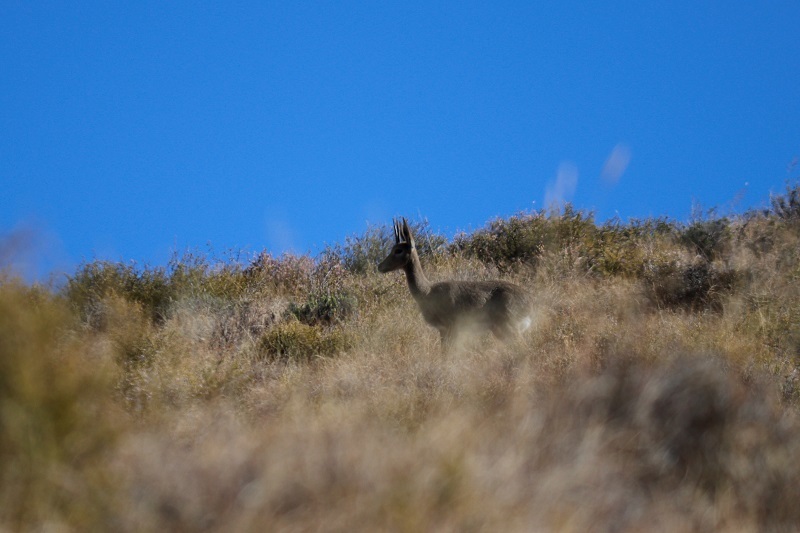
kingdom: Animalia
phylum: Chordata
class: Mammalia
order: Artiodactyla
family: Bovidae
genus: Pelea
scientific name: Pelea capreolus
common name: Common rhebok
